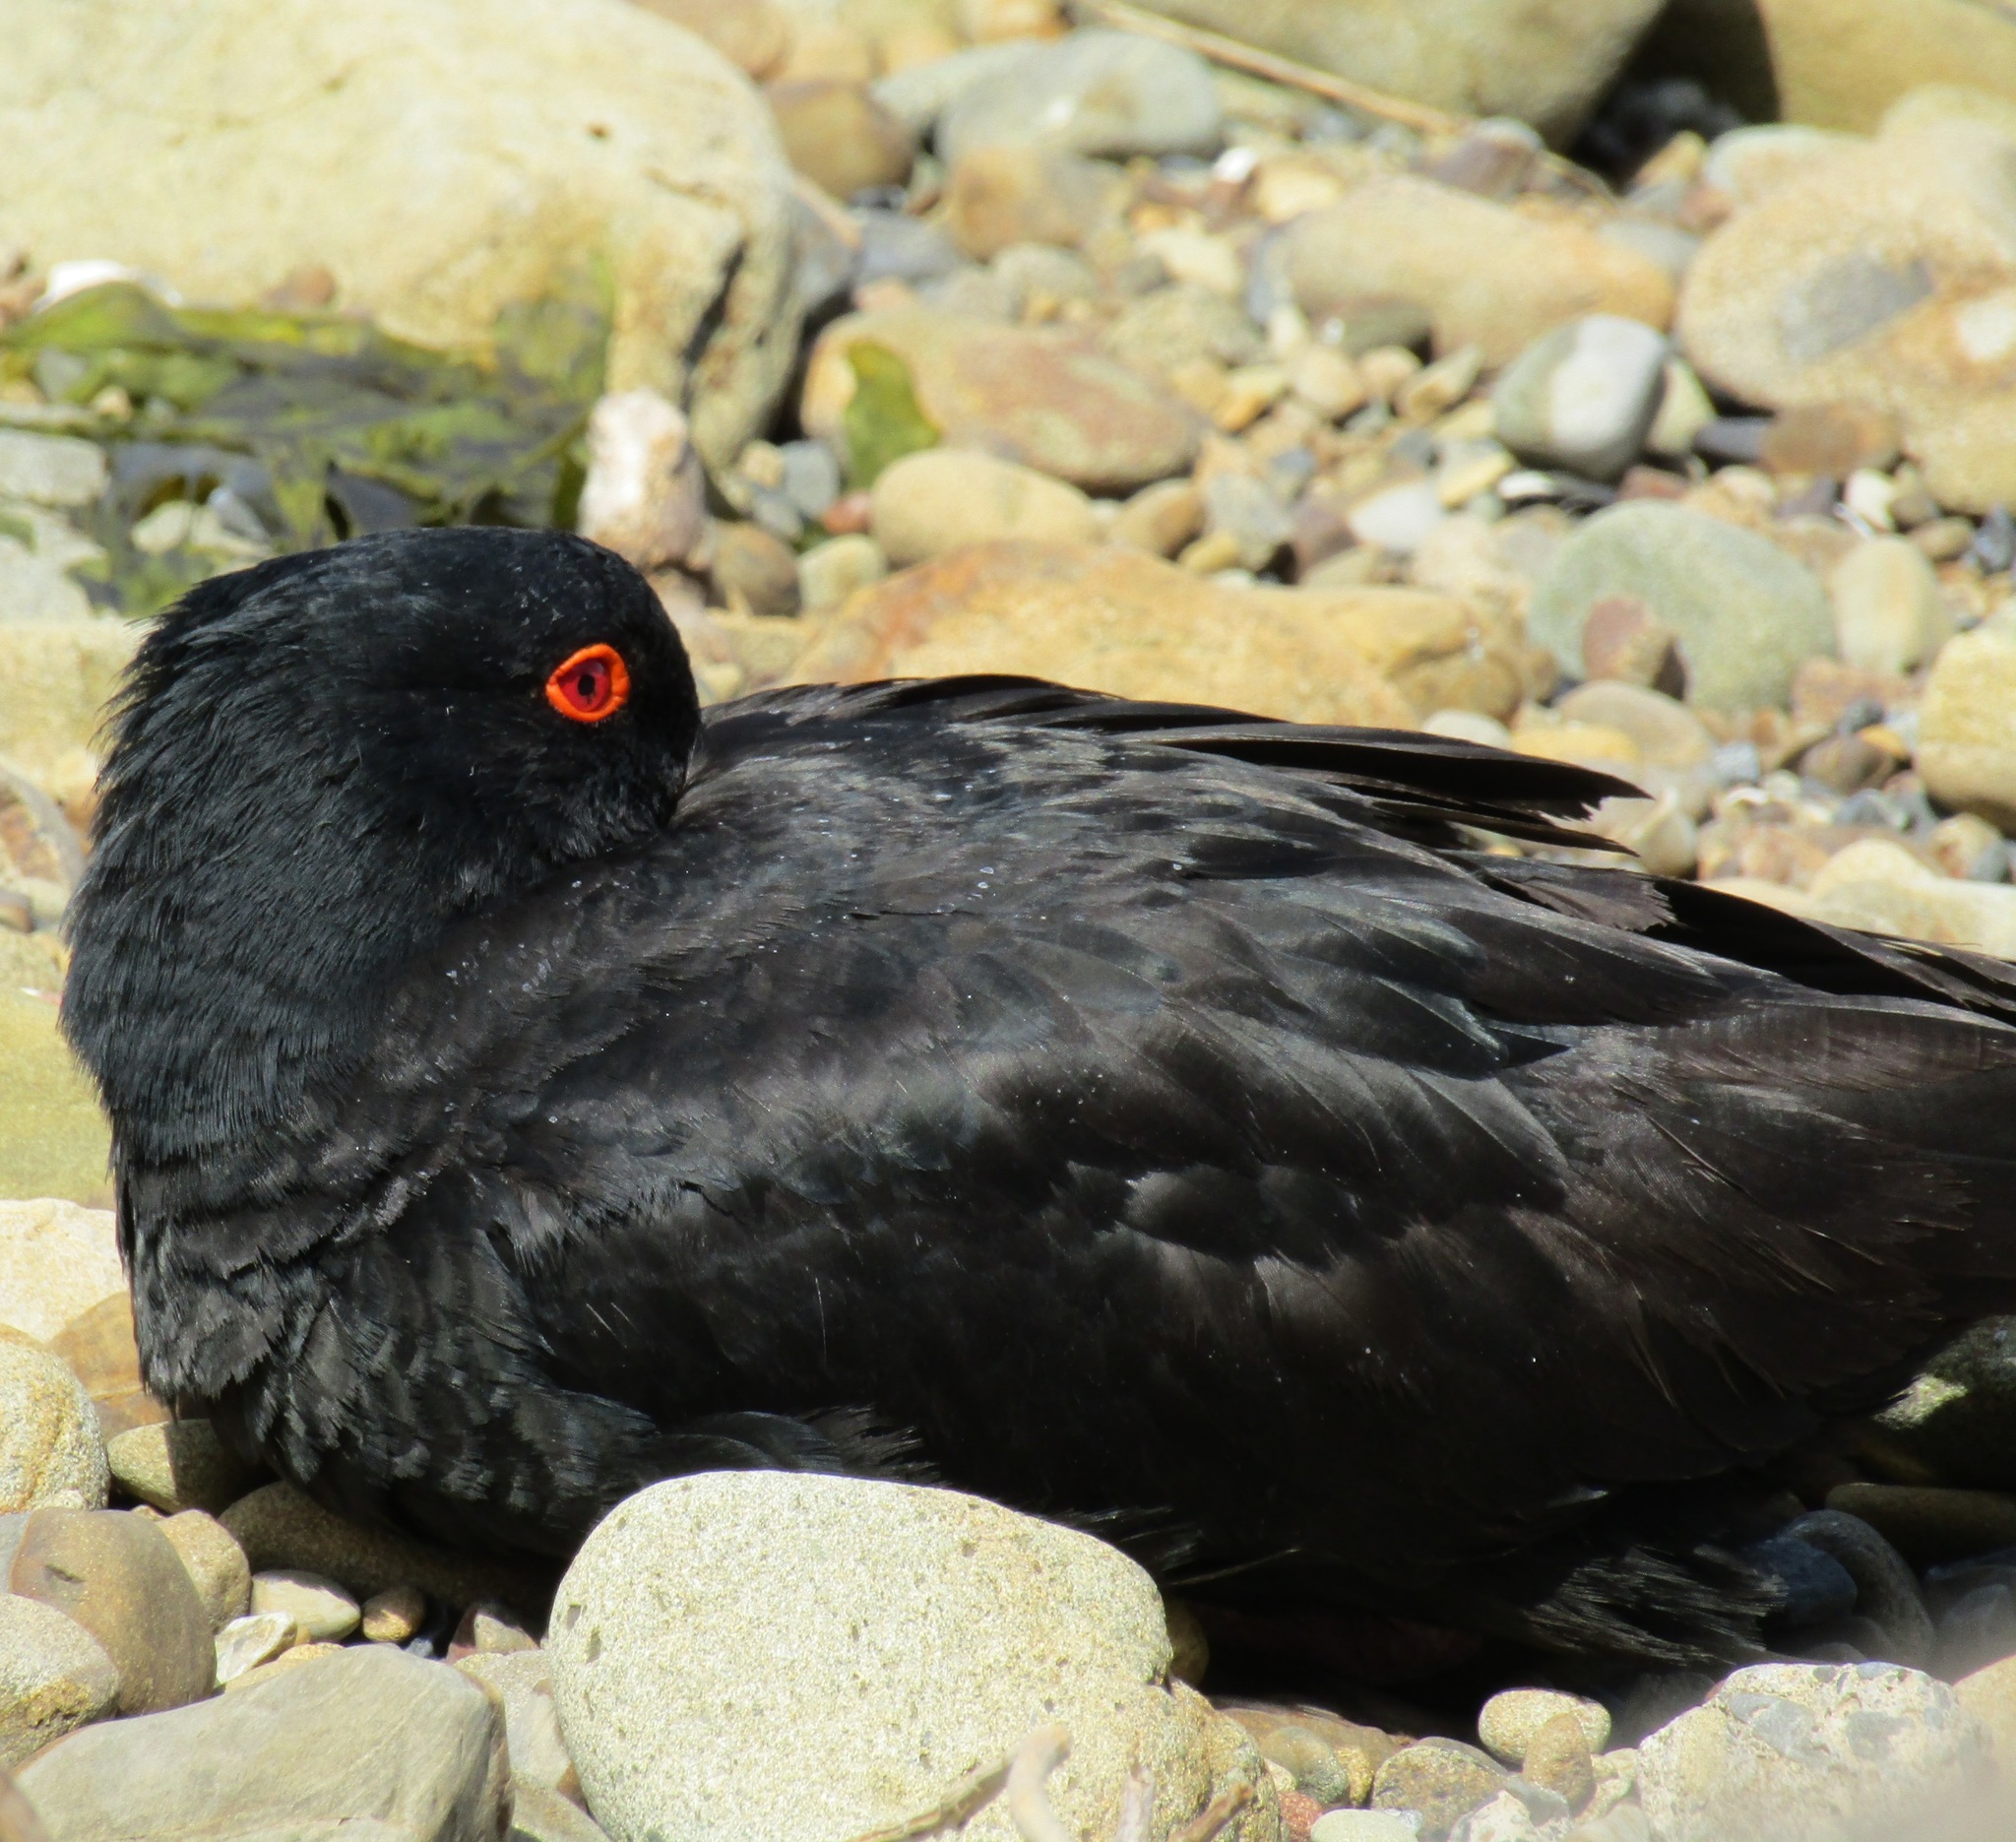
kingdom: Animalia
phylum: Chordata
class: Aves
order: Charadriiformes
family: Haematopodidae
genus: Haematopus
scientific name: Haematopus unicolor
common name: Variable oystercatcher
